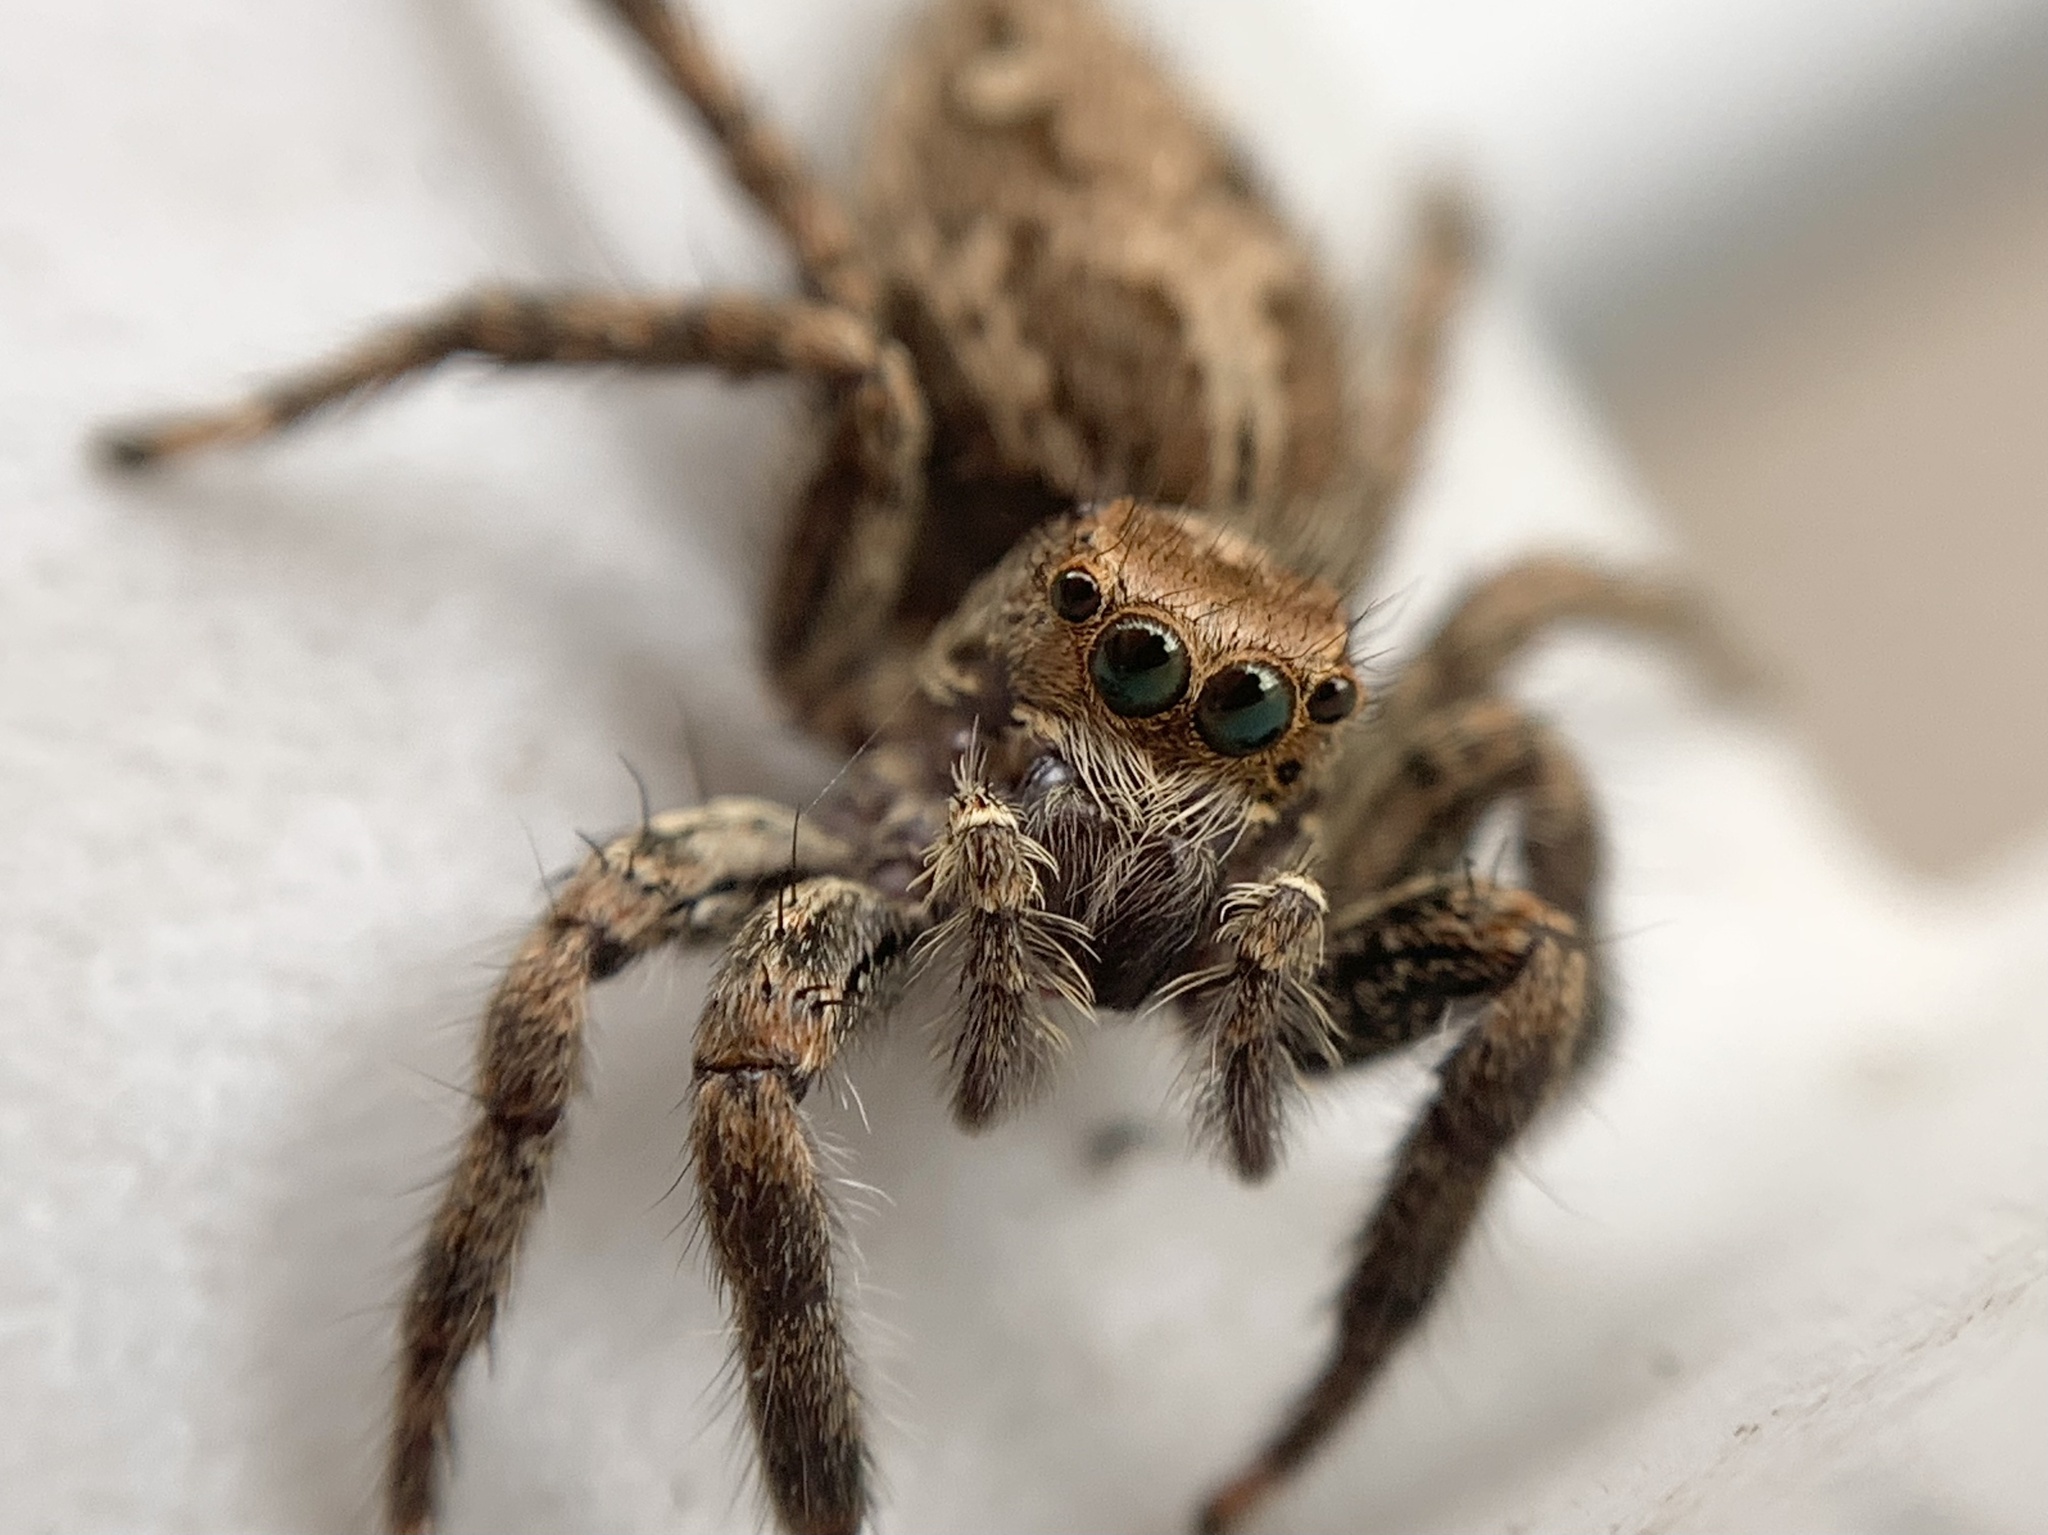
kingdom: Animalia
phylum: Arthropoda
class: Arachnida
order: Araneae
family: Salticidae
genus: Plexippus
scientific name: Plexippus paykulli
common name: Pantropical jumper
